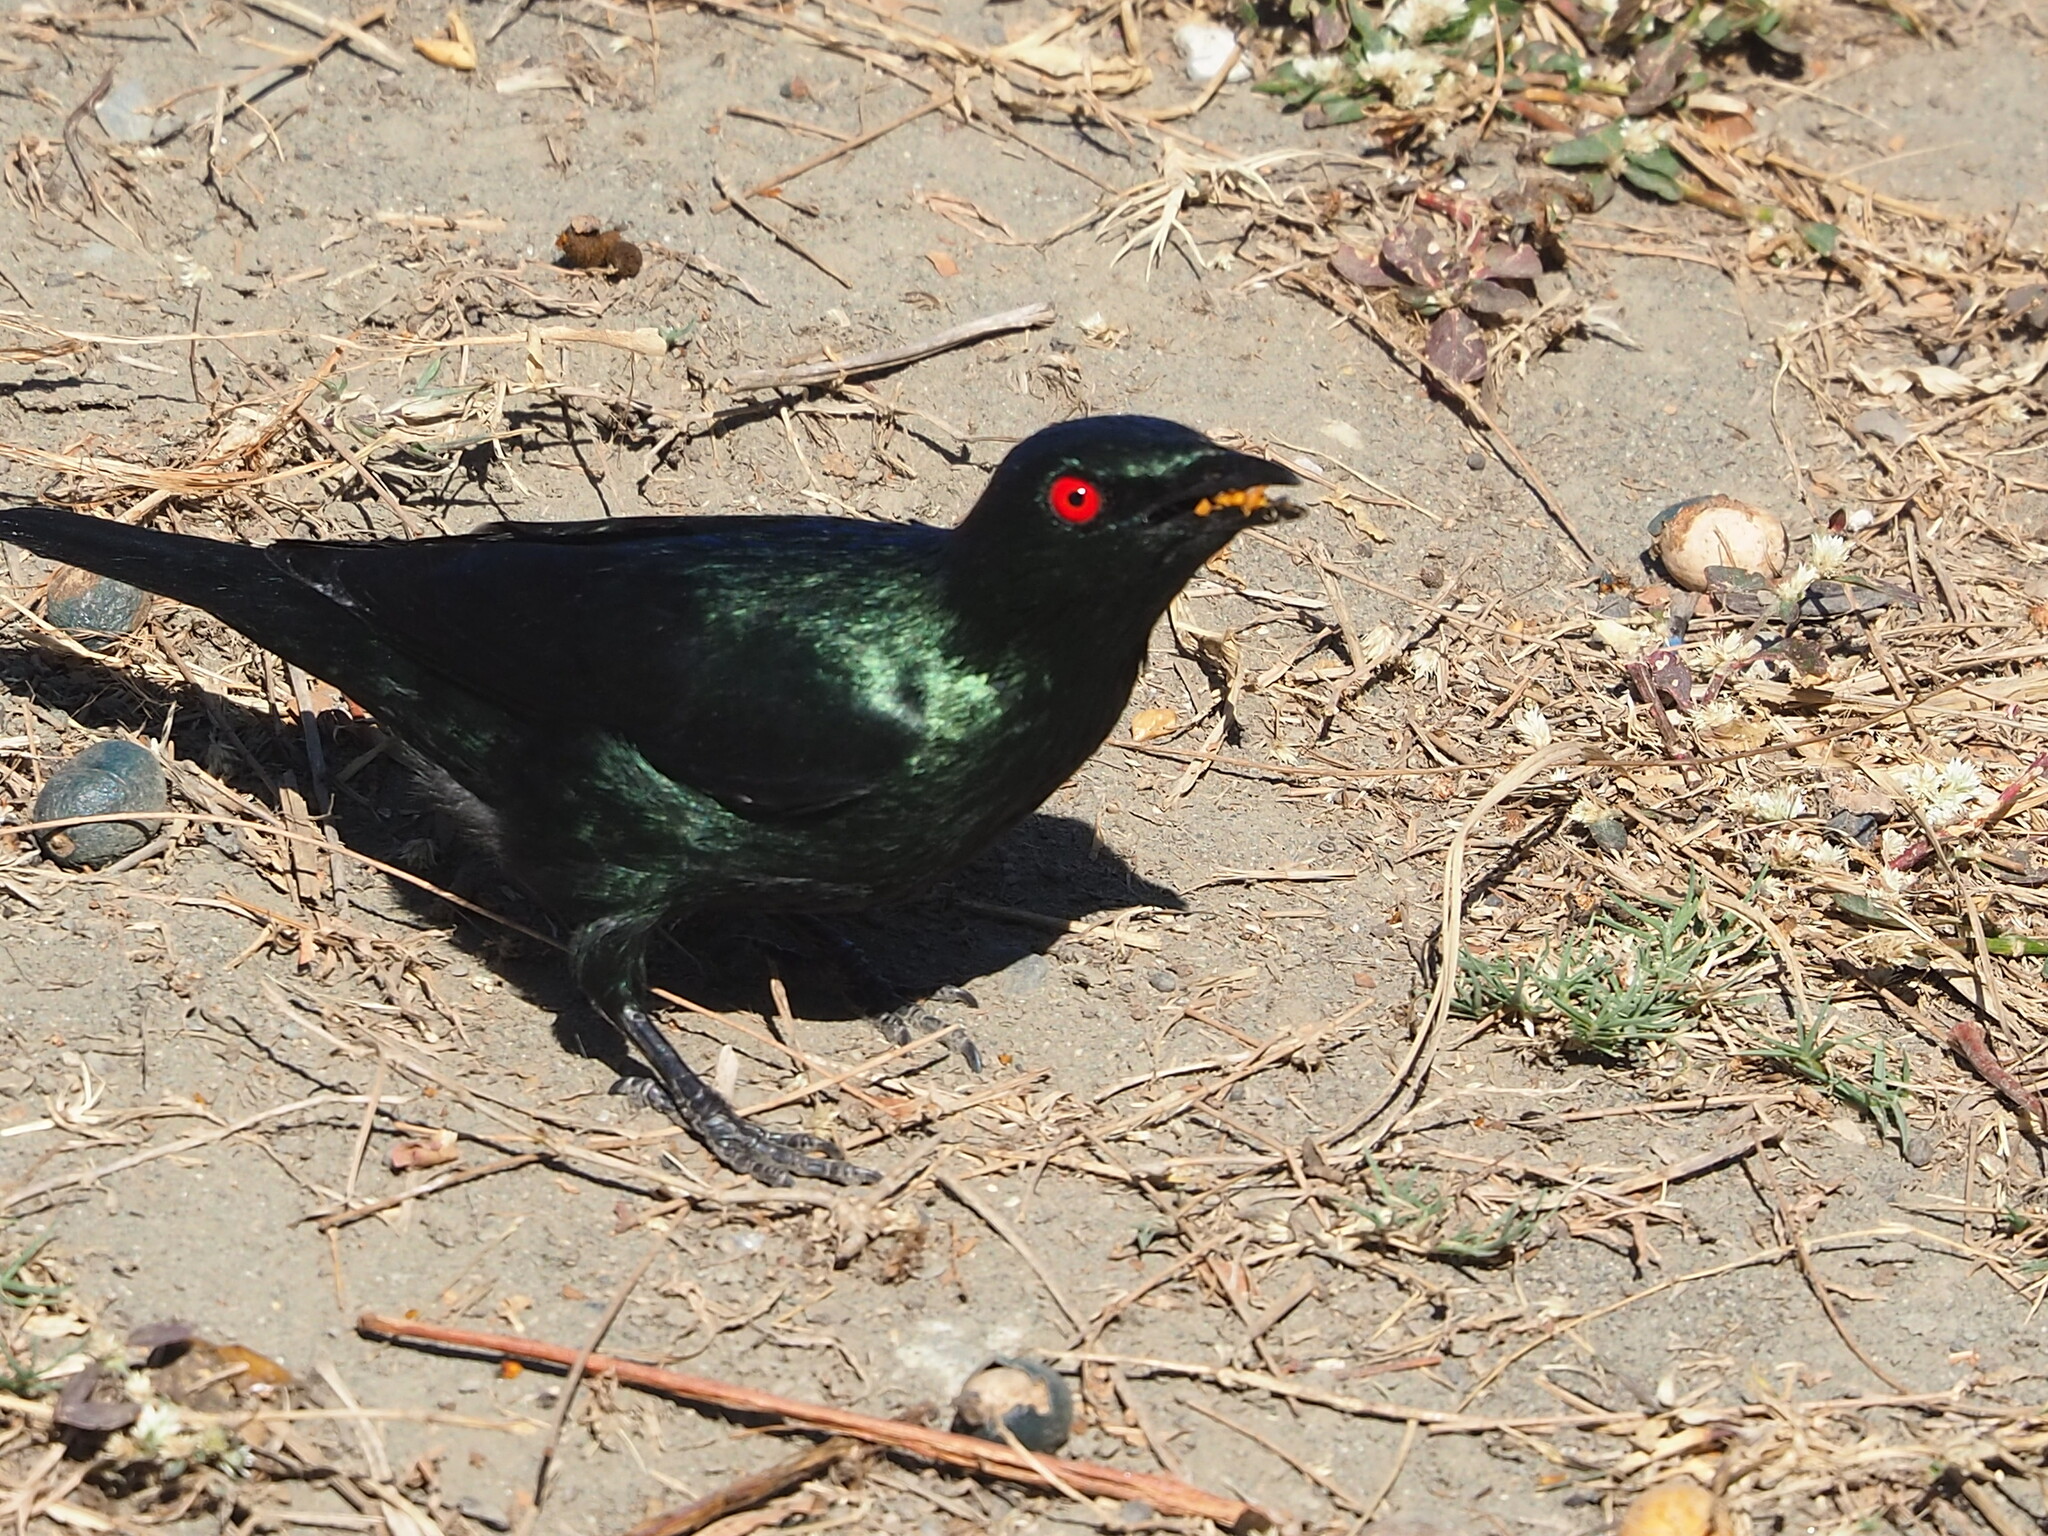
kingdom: Animalia
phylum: Chordata
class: Aves
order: Passeriformes
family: Sturnidae
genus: Aplonis
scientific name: Aplonis panayensis
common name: Asian glossy starling
